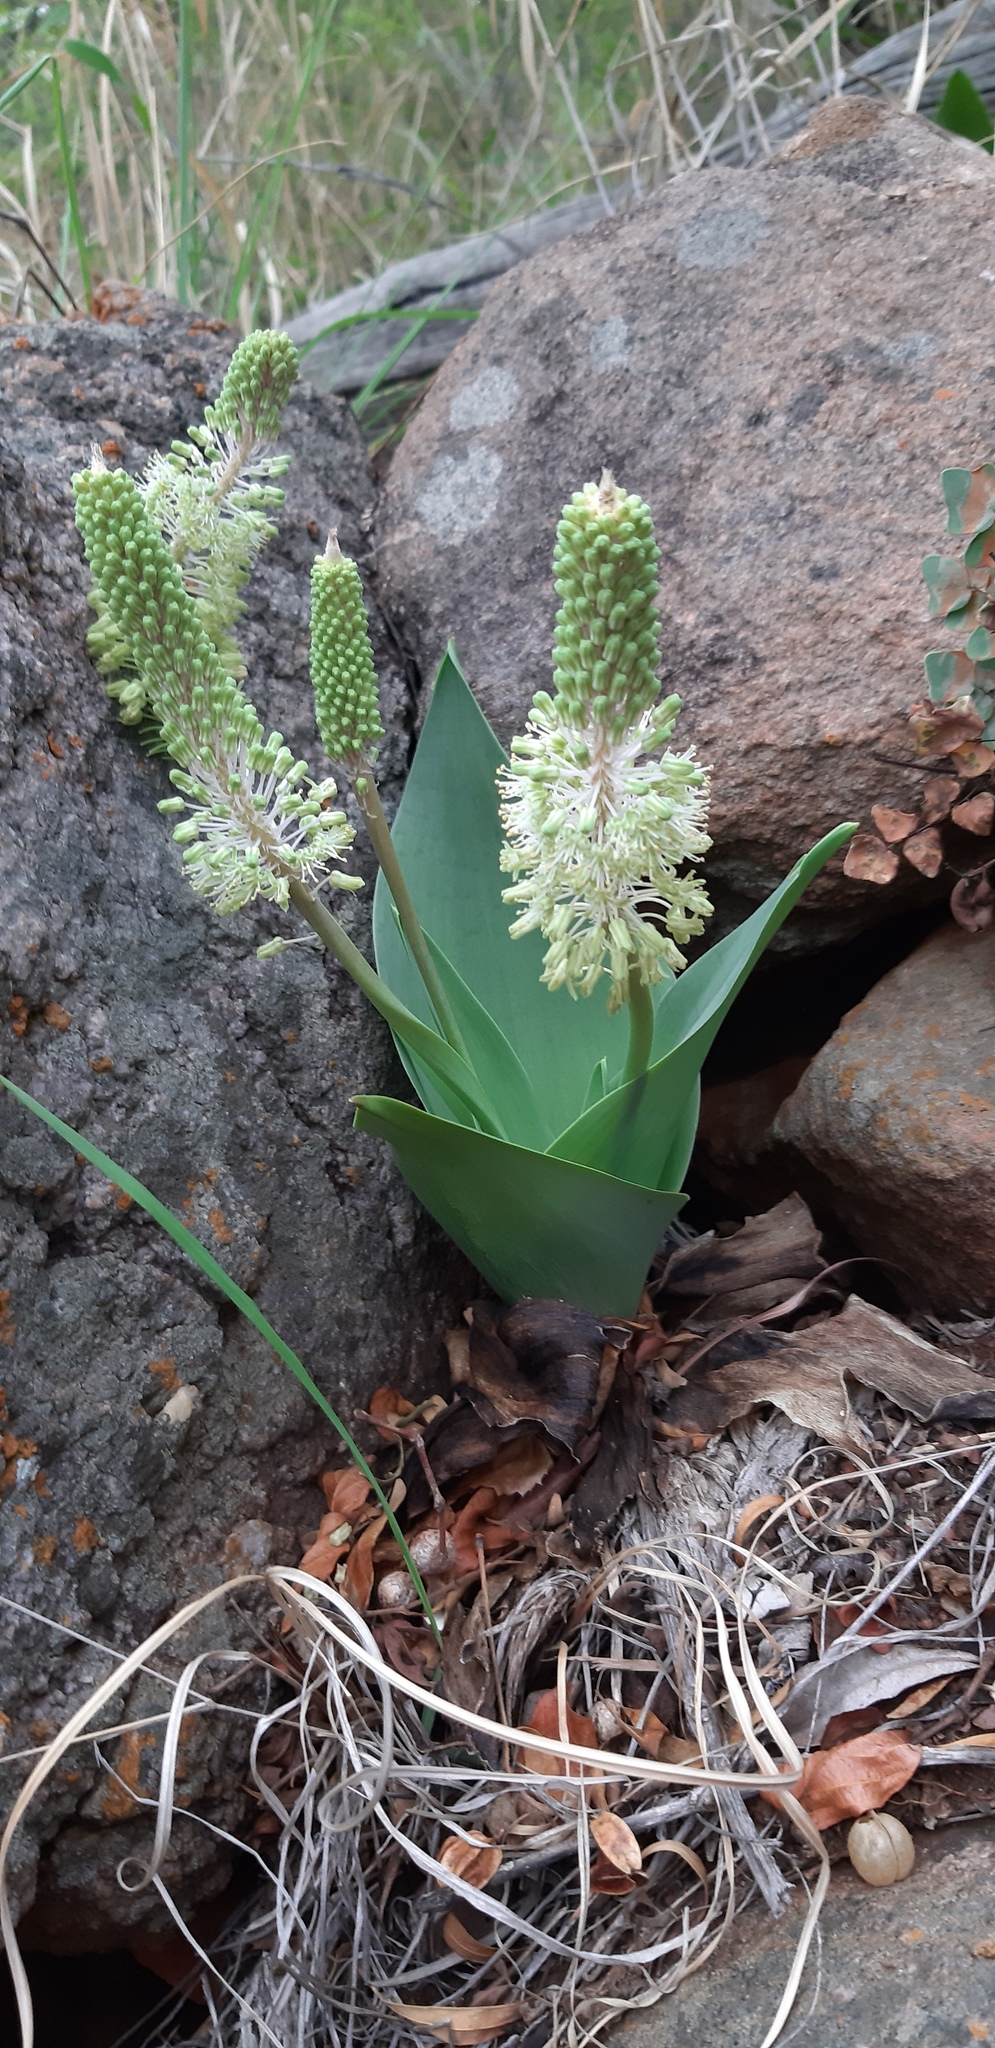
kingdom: Plantae
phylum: Tracheophyta
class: Liliopsida
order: Asparagales
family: Asparagaceae
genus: Ledebouria
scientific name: Ledebouria zebrina
